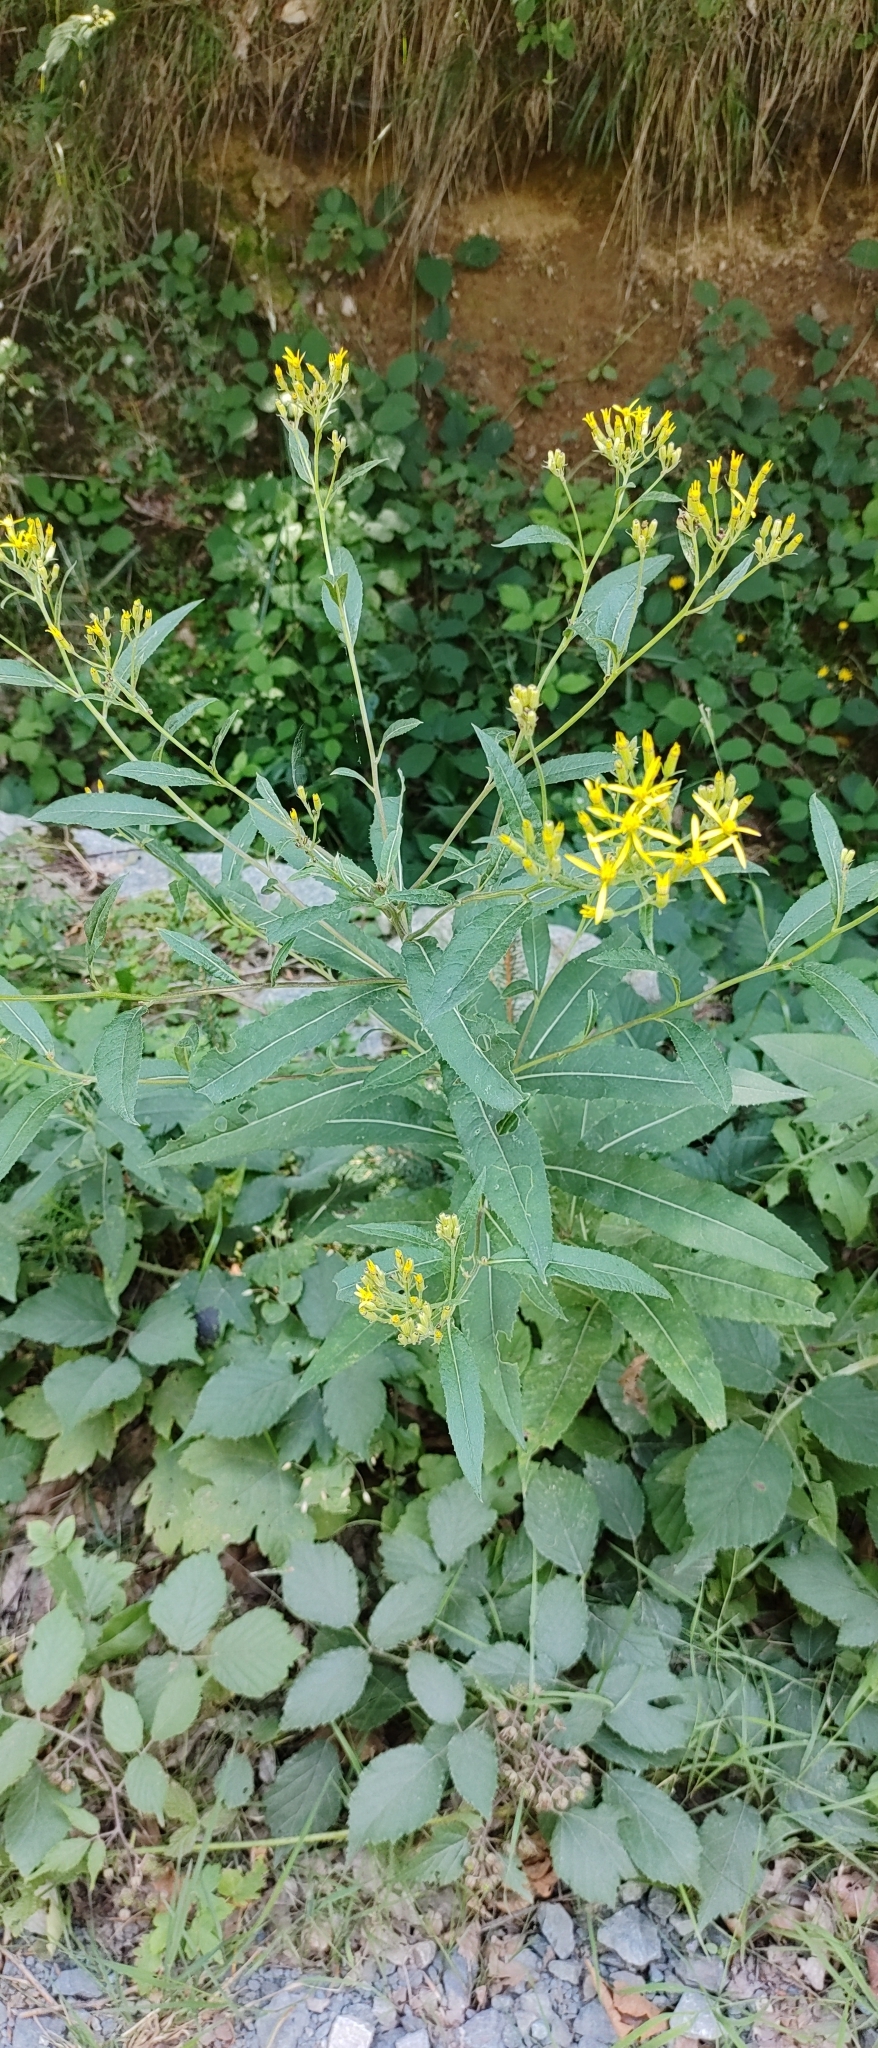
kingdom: Plantae
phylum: Tracheophyta
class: Magnoliopsida
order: Asterales
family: Asteraceae
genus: Senecio
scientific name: Senecio ovatus
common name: Wood ragwort
